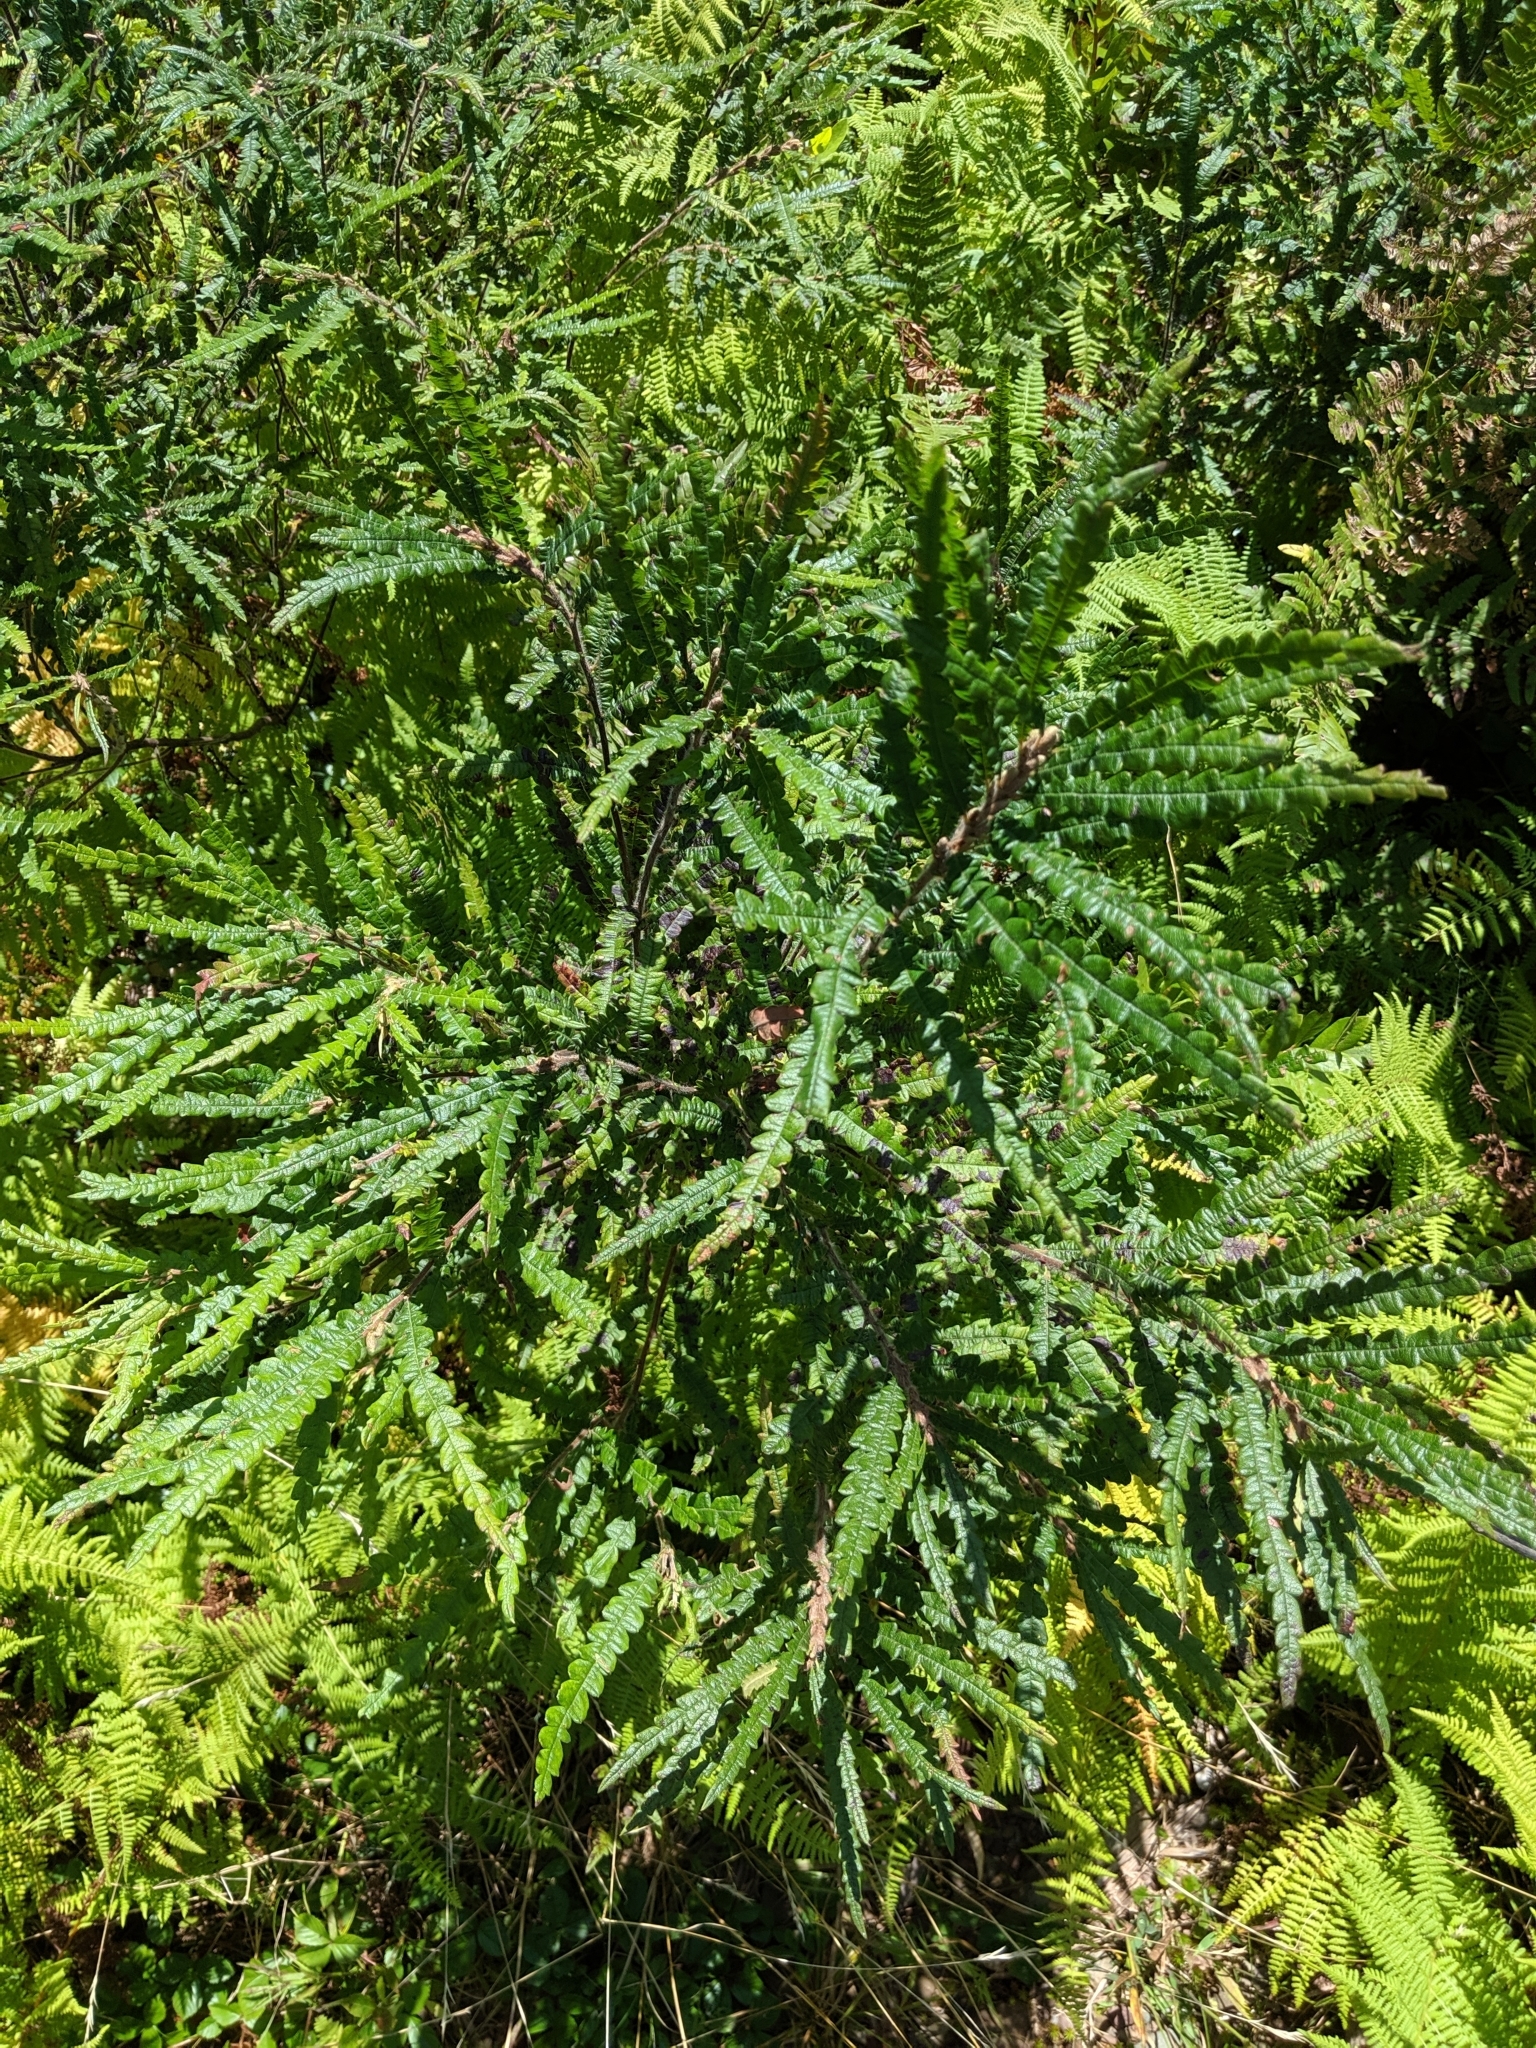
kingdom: Plantae
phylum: Tracheophyta
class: Magnoliopsida
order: Fagales
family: Myricaceae
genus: Comptonia
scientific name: Comptonia peregrina
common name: Sweet-fern
